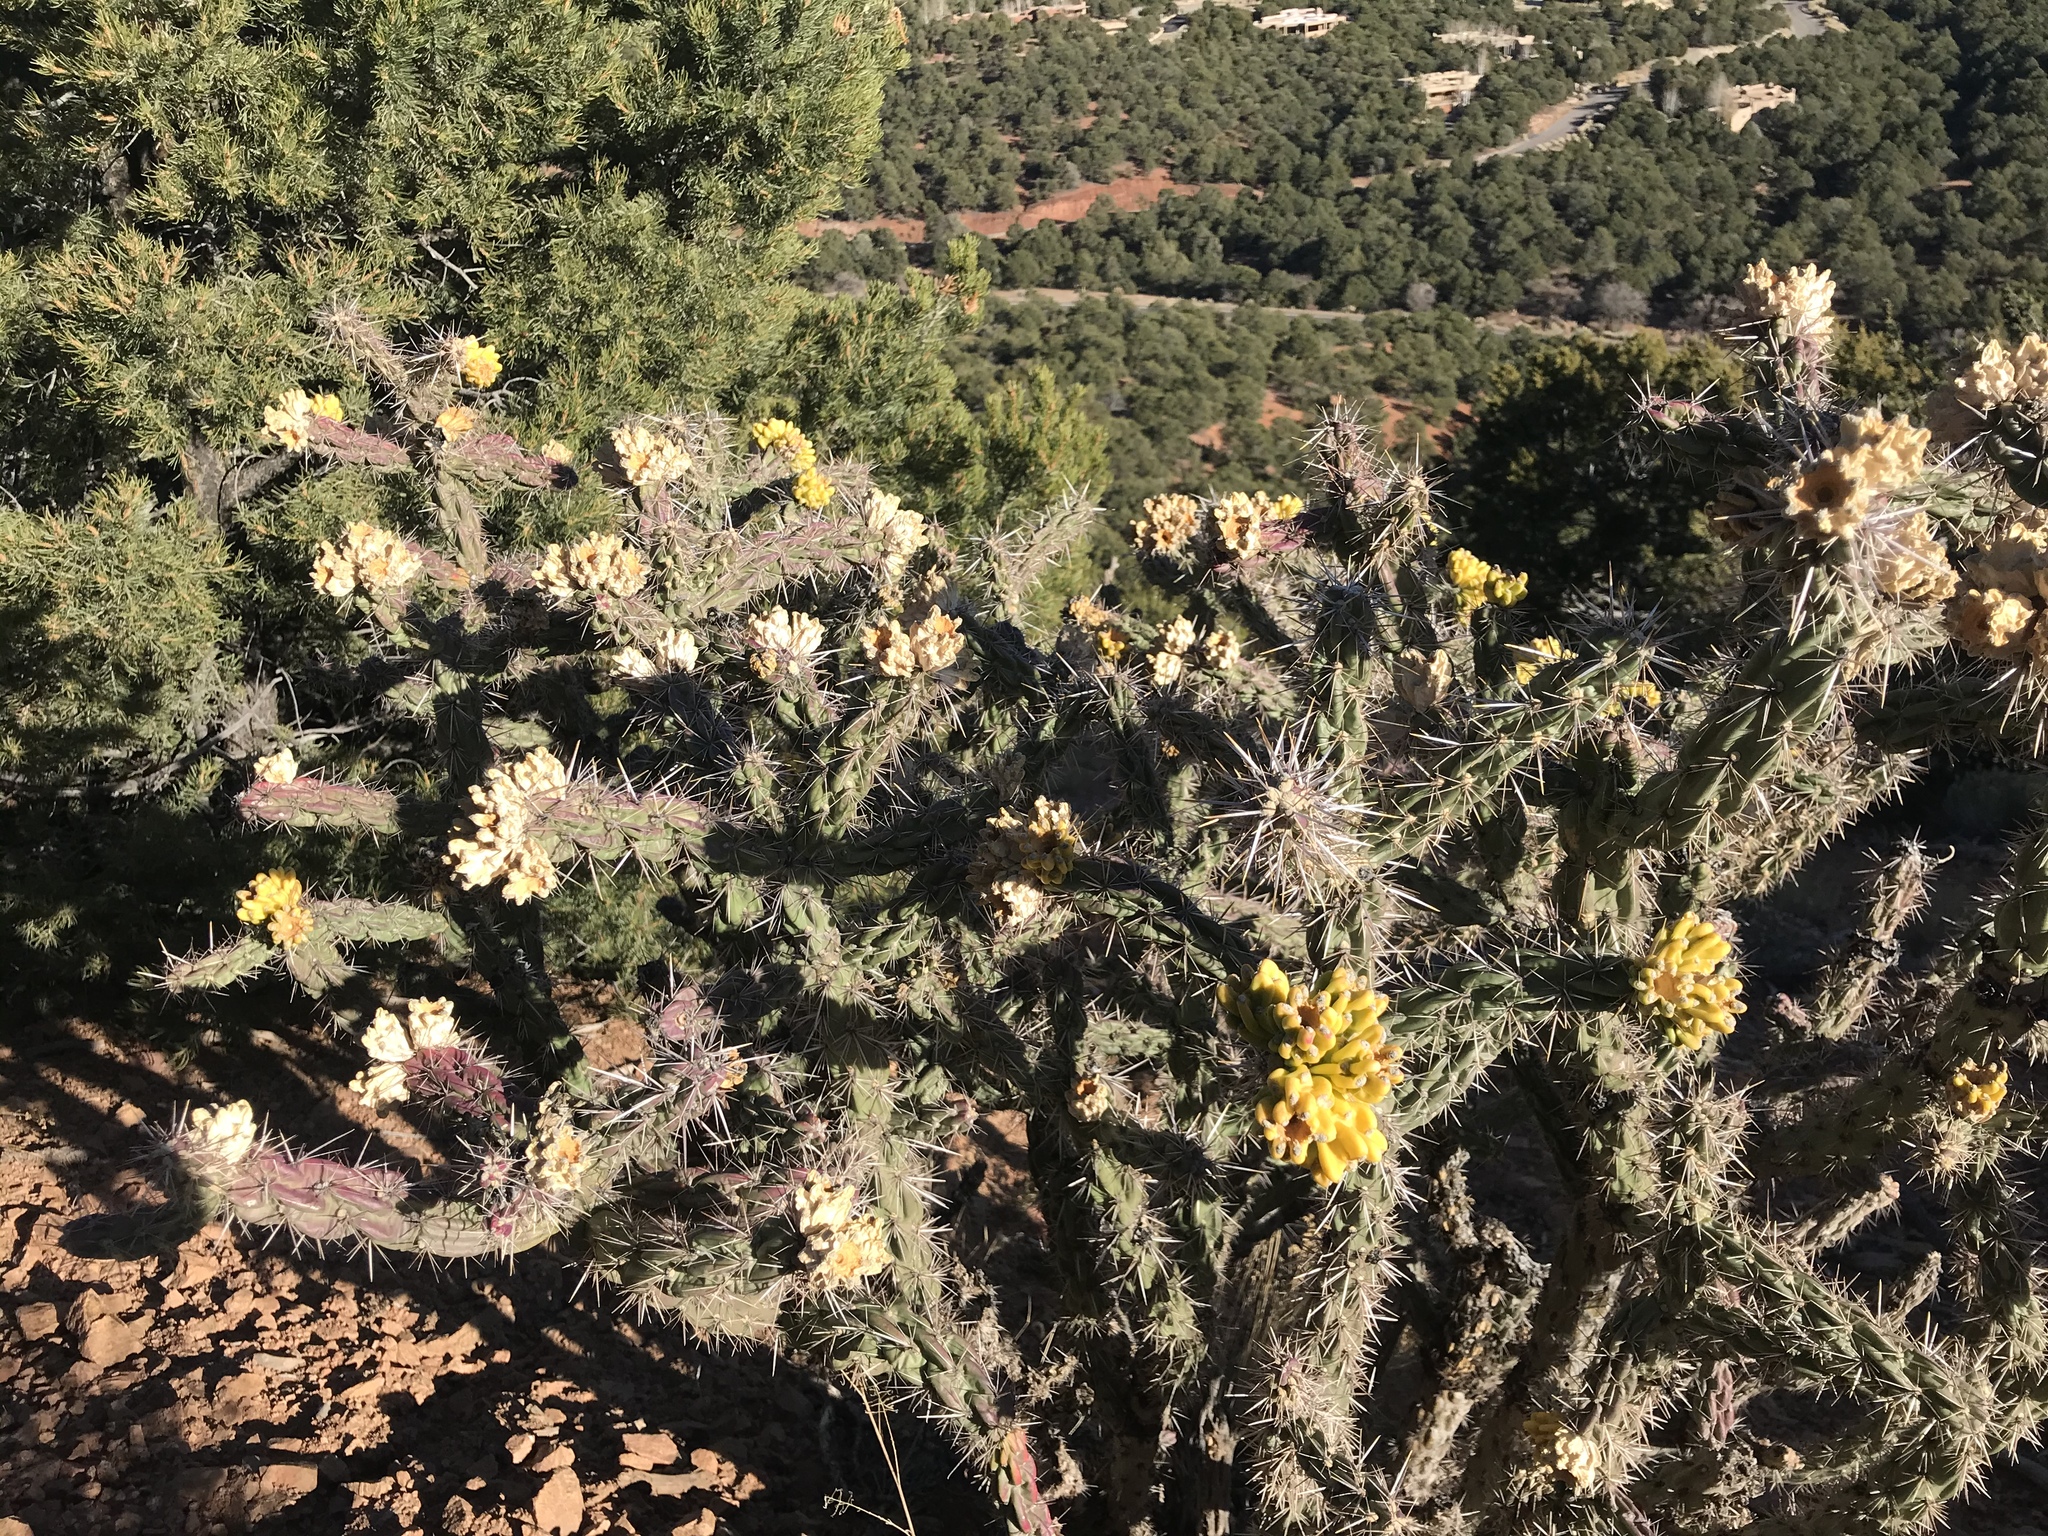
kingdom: Plantae
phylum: Tracheophyta
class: Magnoliopsida
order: Caryophyllales
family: Cactaceae
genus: Cylindropuntia
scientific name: Cylindropuntia imbricata
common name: Candelabrum cactus
